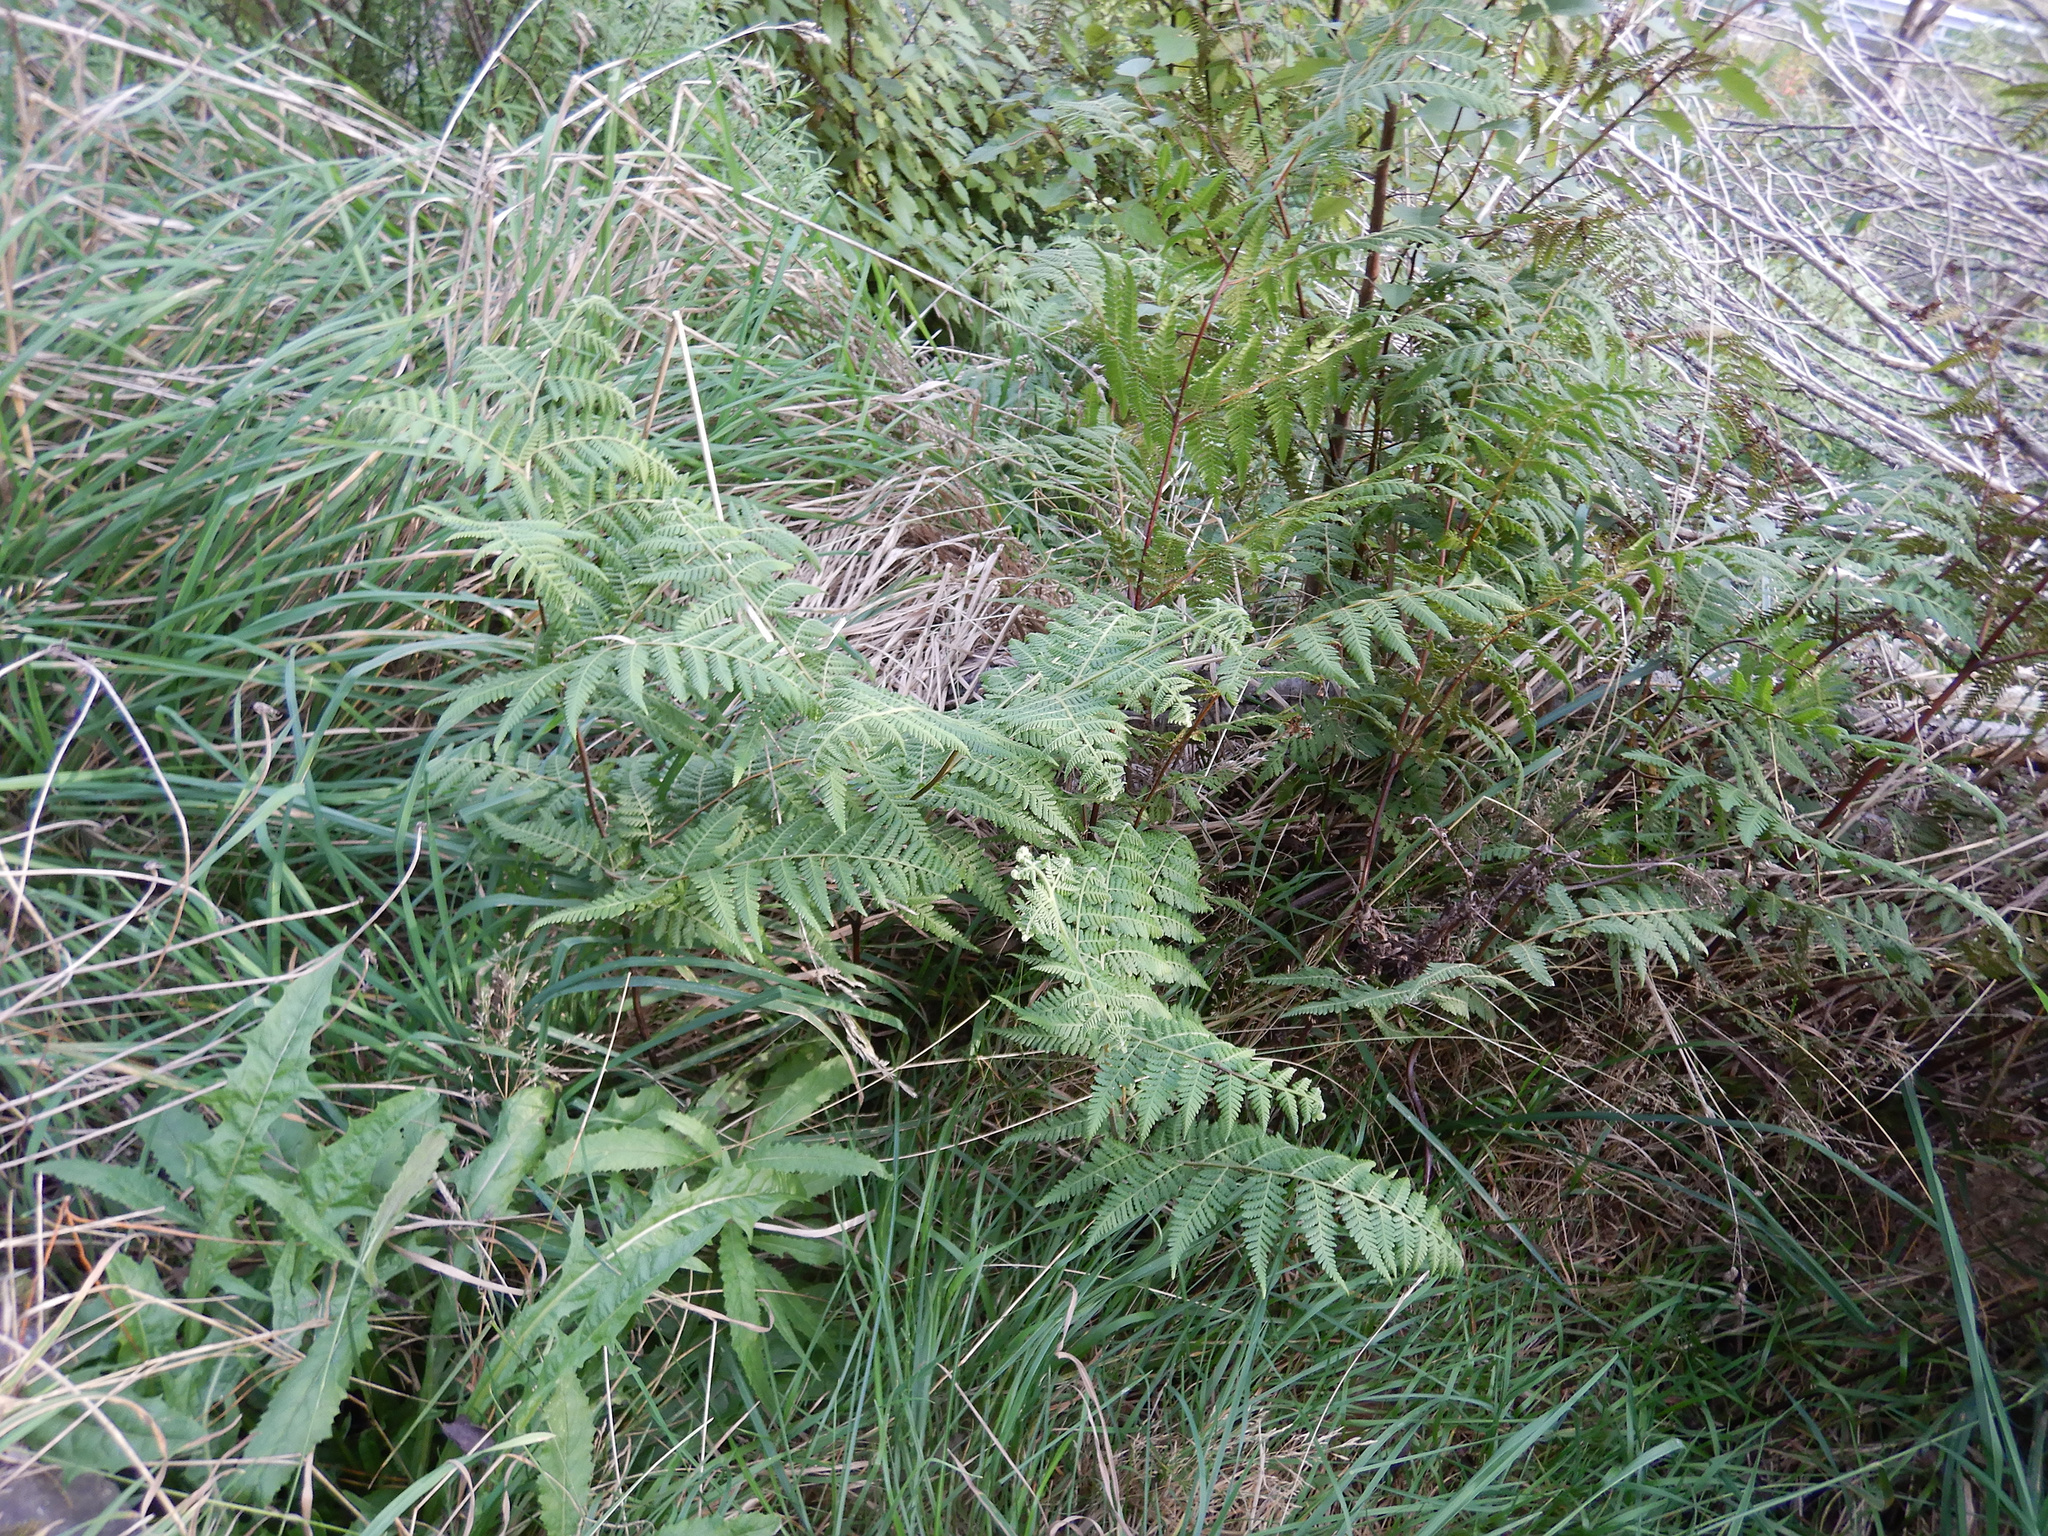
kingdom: Plantae
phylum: Tracheophyta
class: Polypodiopsida
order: Polypodiales
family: Dennstaedtiaceae
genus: Hypolepis
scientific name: Hypolepis ambigua
